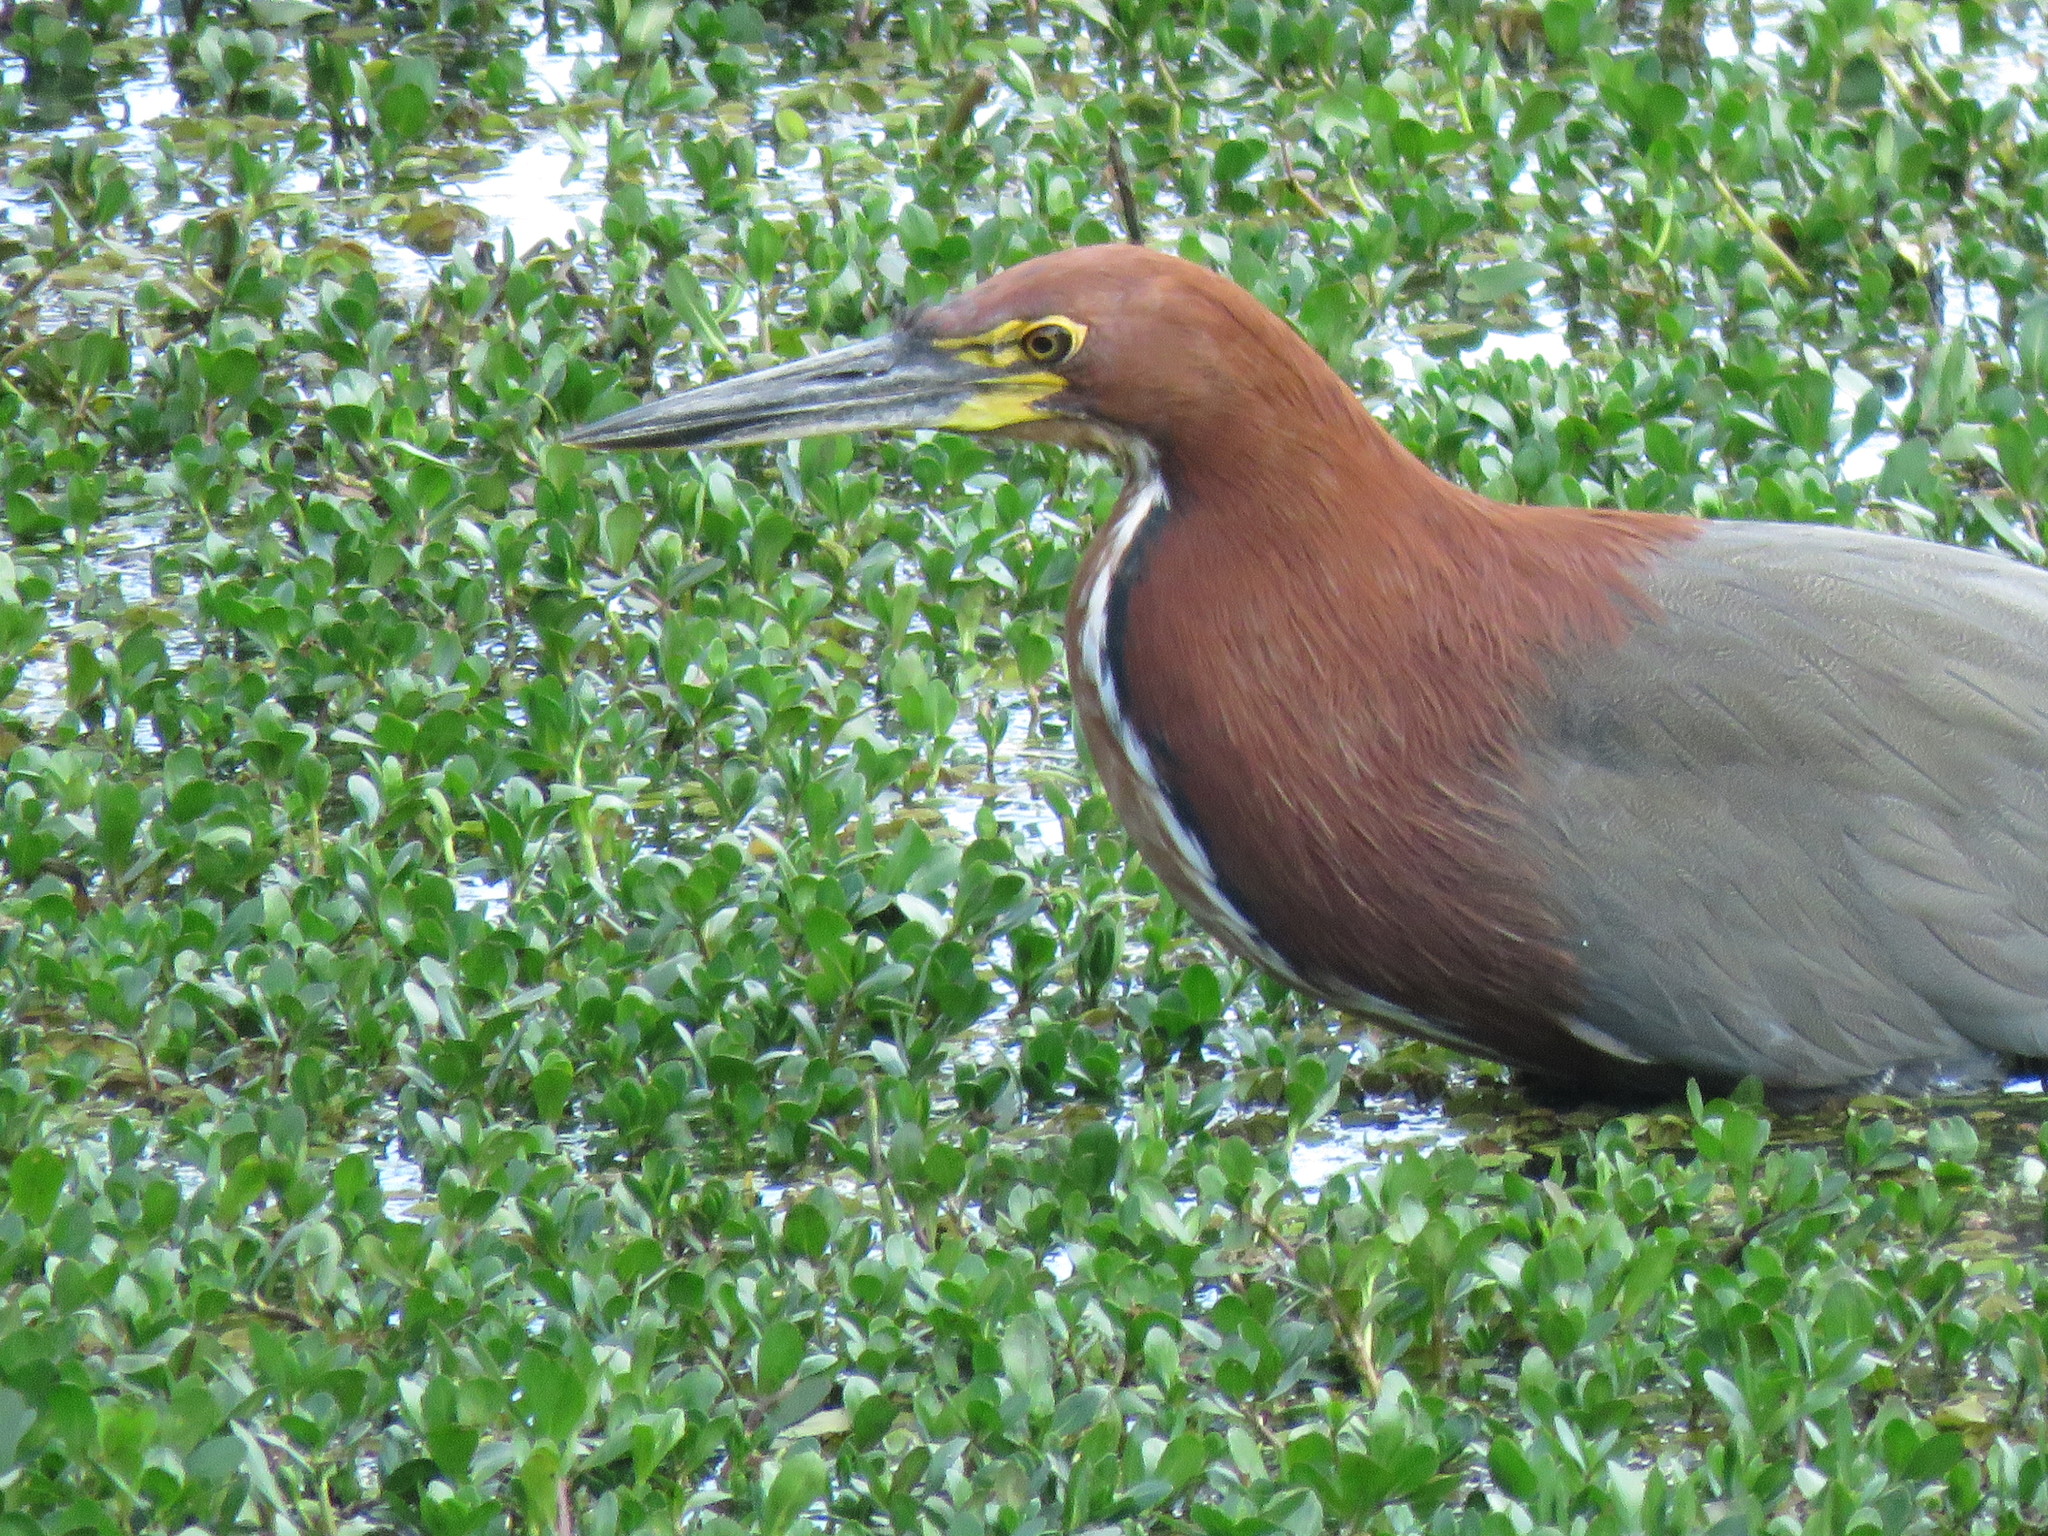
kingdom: Animalia
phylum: Chordata
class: Aves
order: Pelecaniformes
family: Ardeidae
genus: Tigrisoma
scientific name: Tigrisoma lineatum
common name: Rufescent tiger-heron
